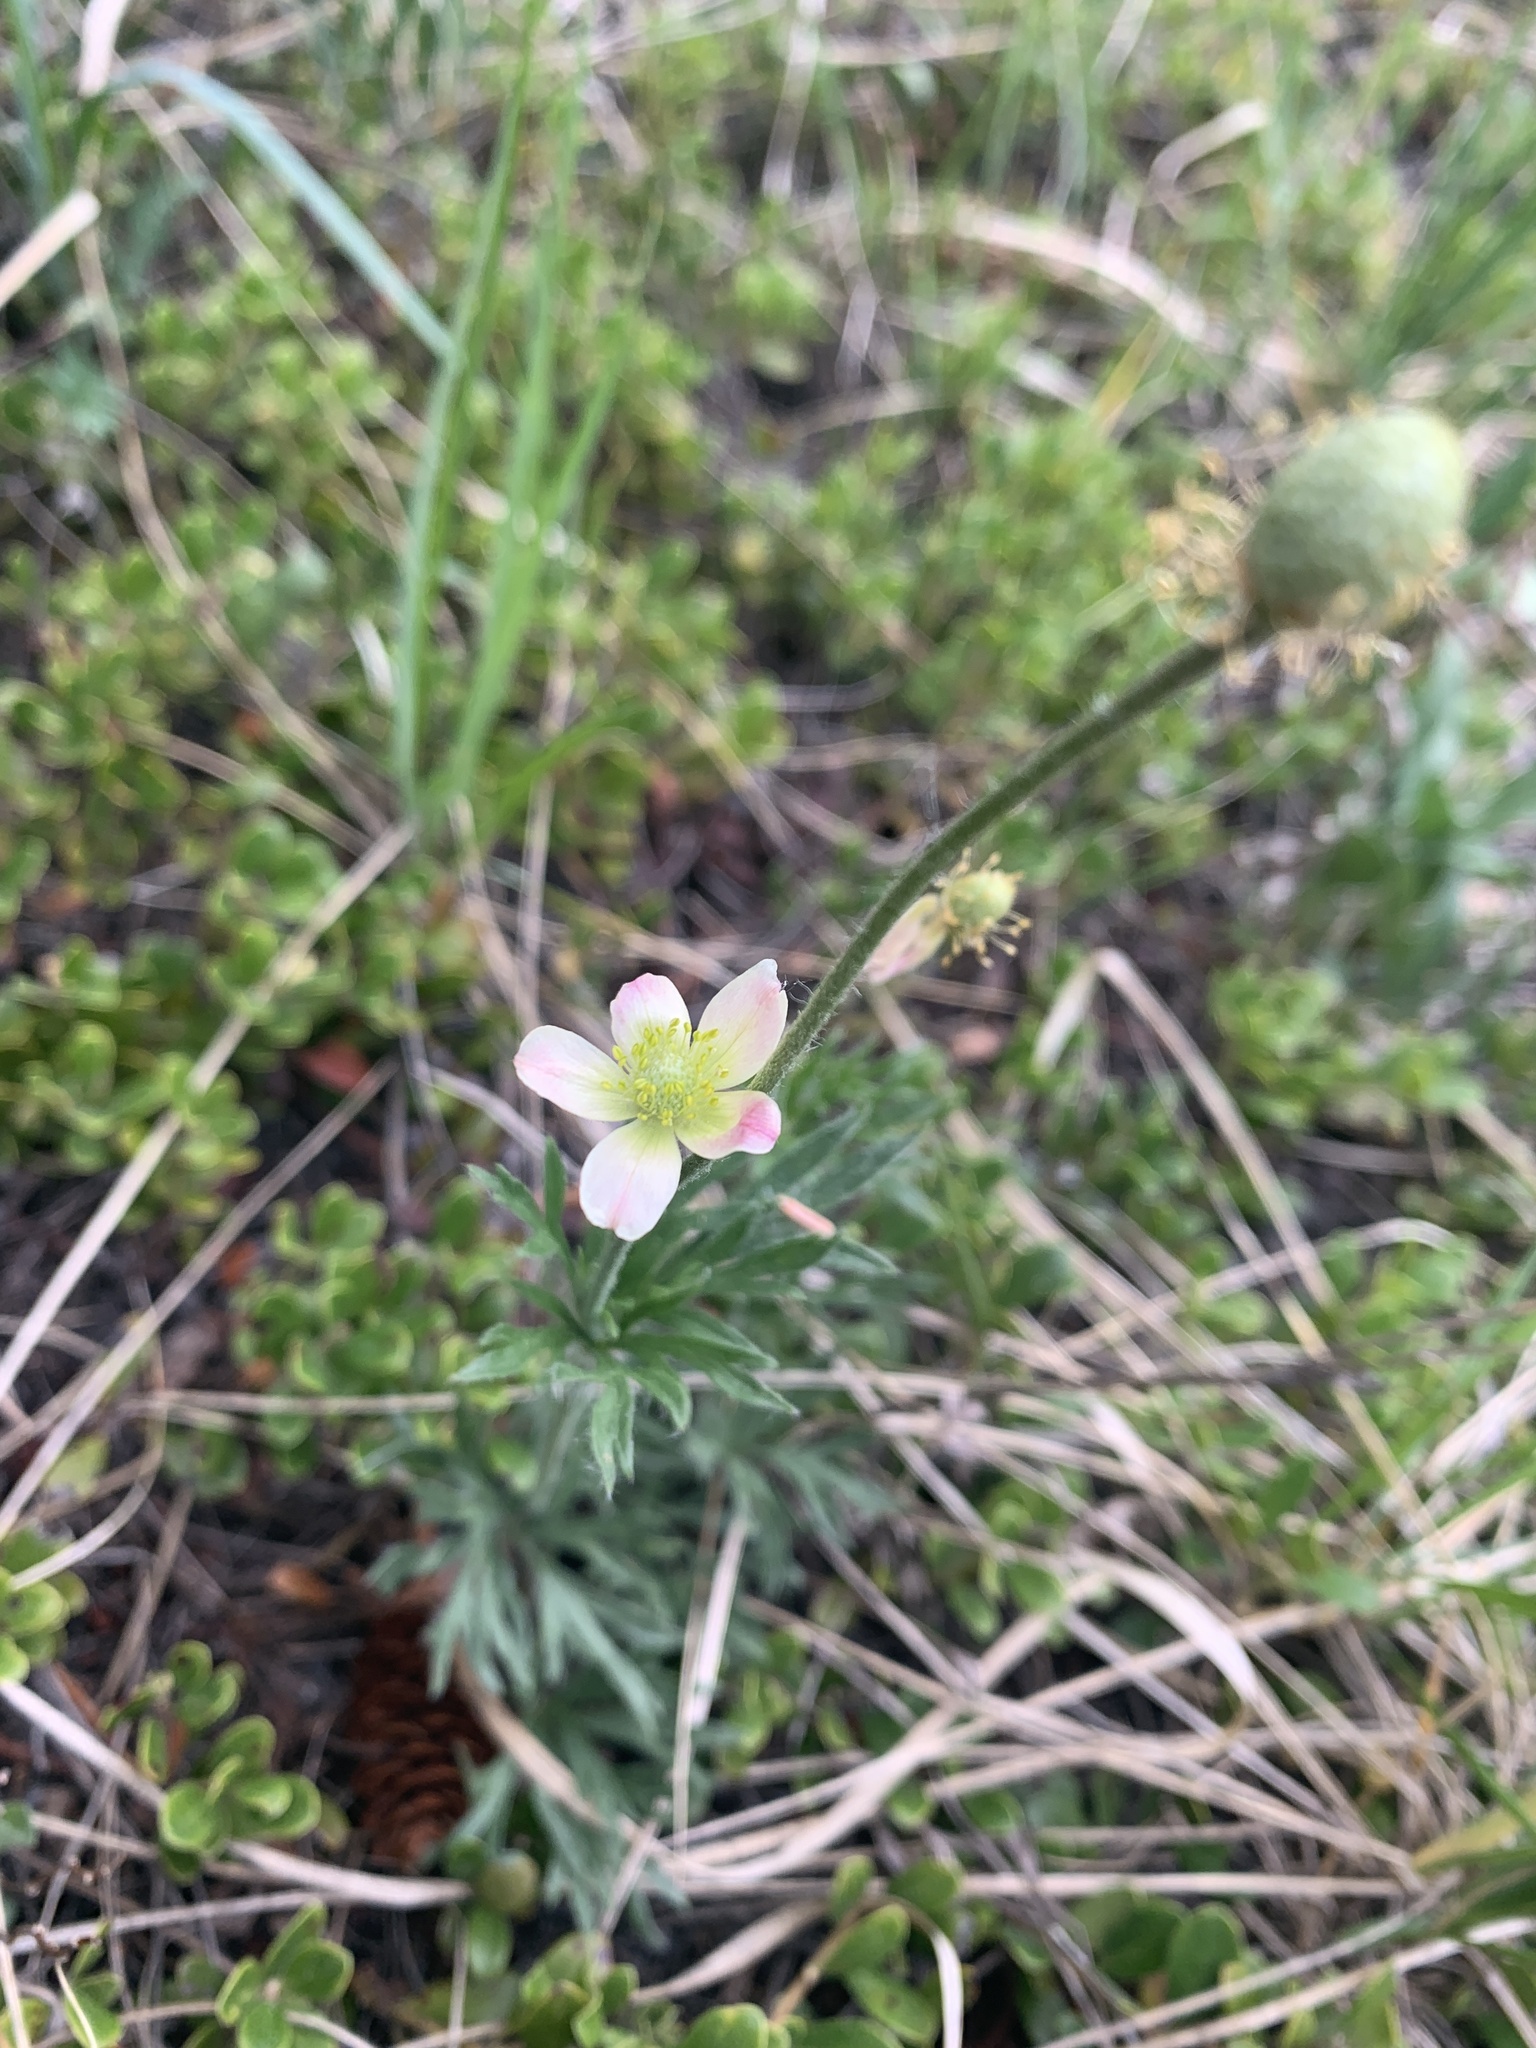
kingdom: Plantae
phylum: Tracheophyta
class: Magnoliopsida
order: Ranunculales
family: Ranunculaceae
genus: Anemone
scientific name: Anemone multifida
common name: Bird's-foot anemone
